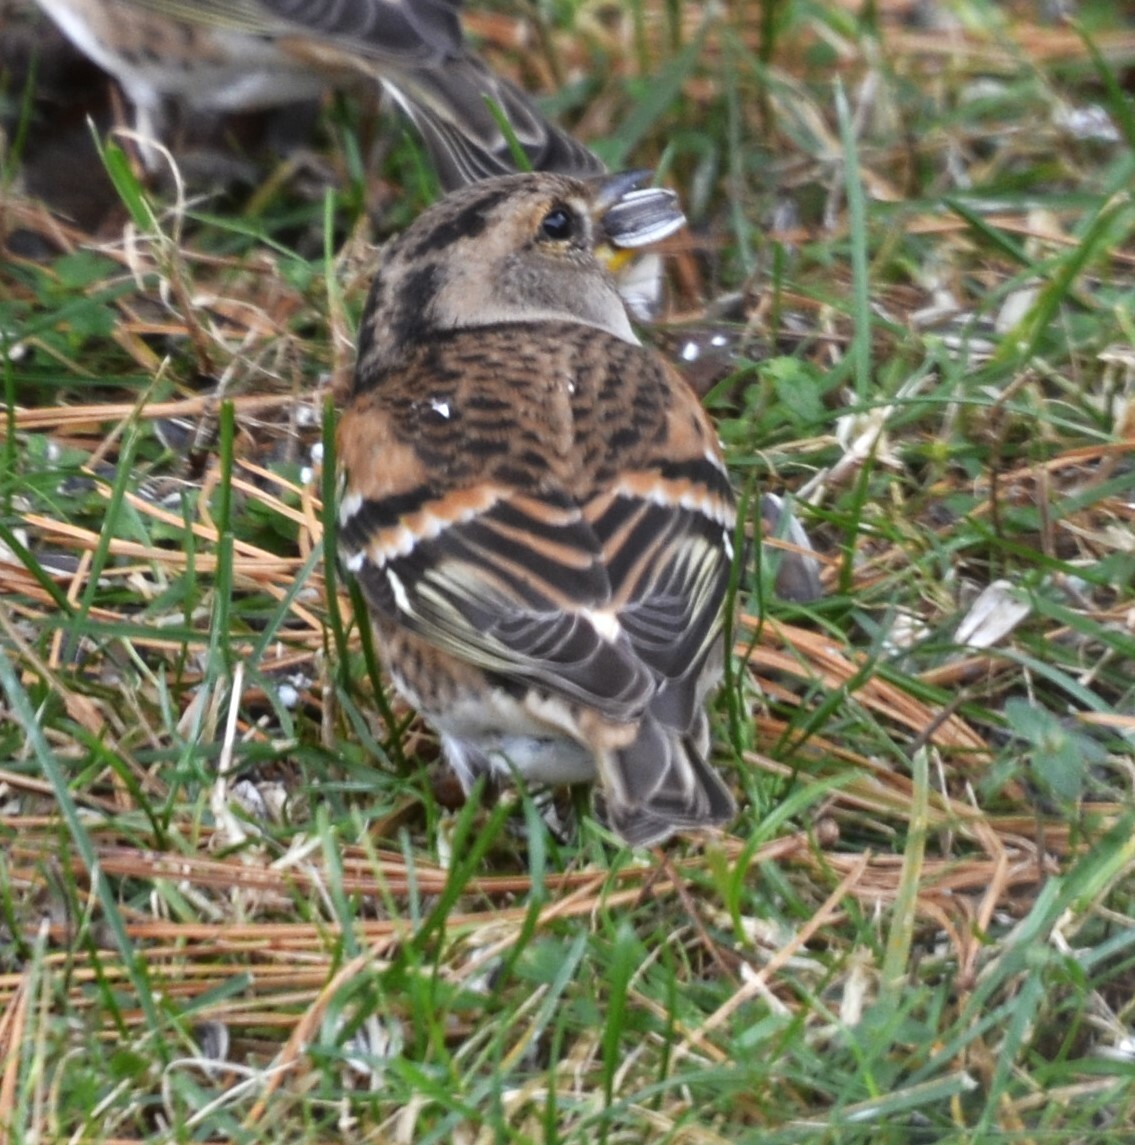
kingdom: Animalia
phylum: Chordata
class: Aves
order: Passeriformes
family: Fringillidae
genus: Fringilla
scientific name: Fringilla montifringilla
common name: Brambling
